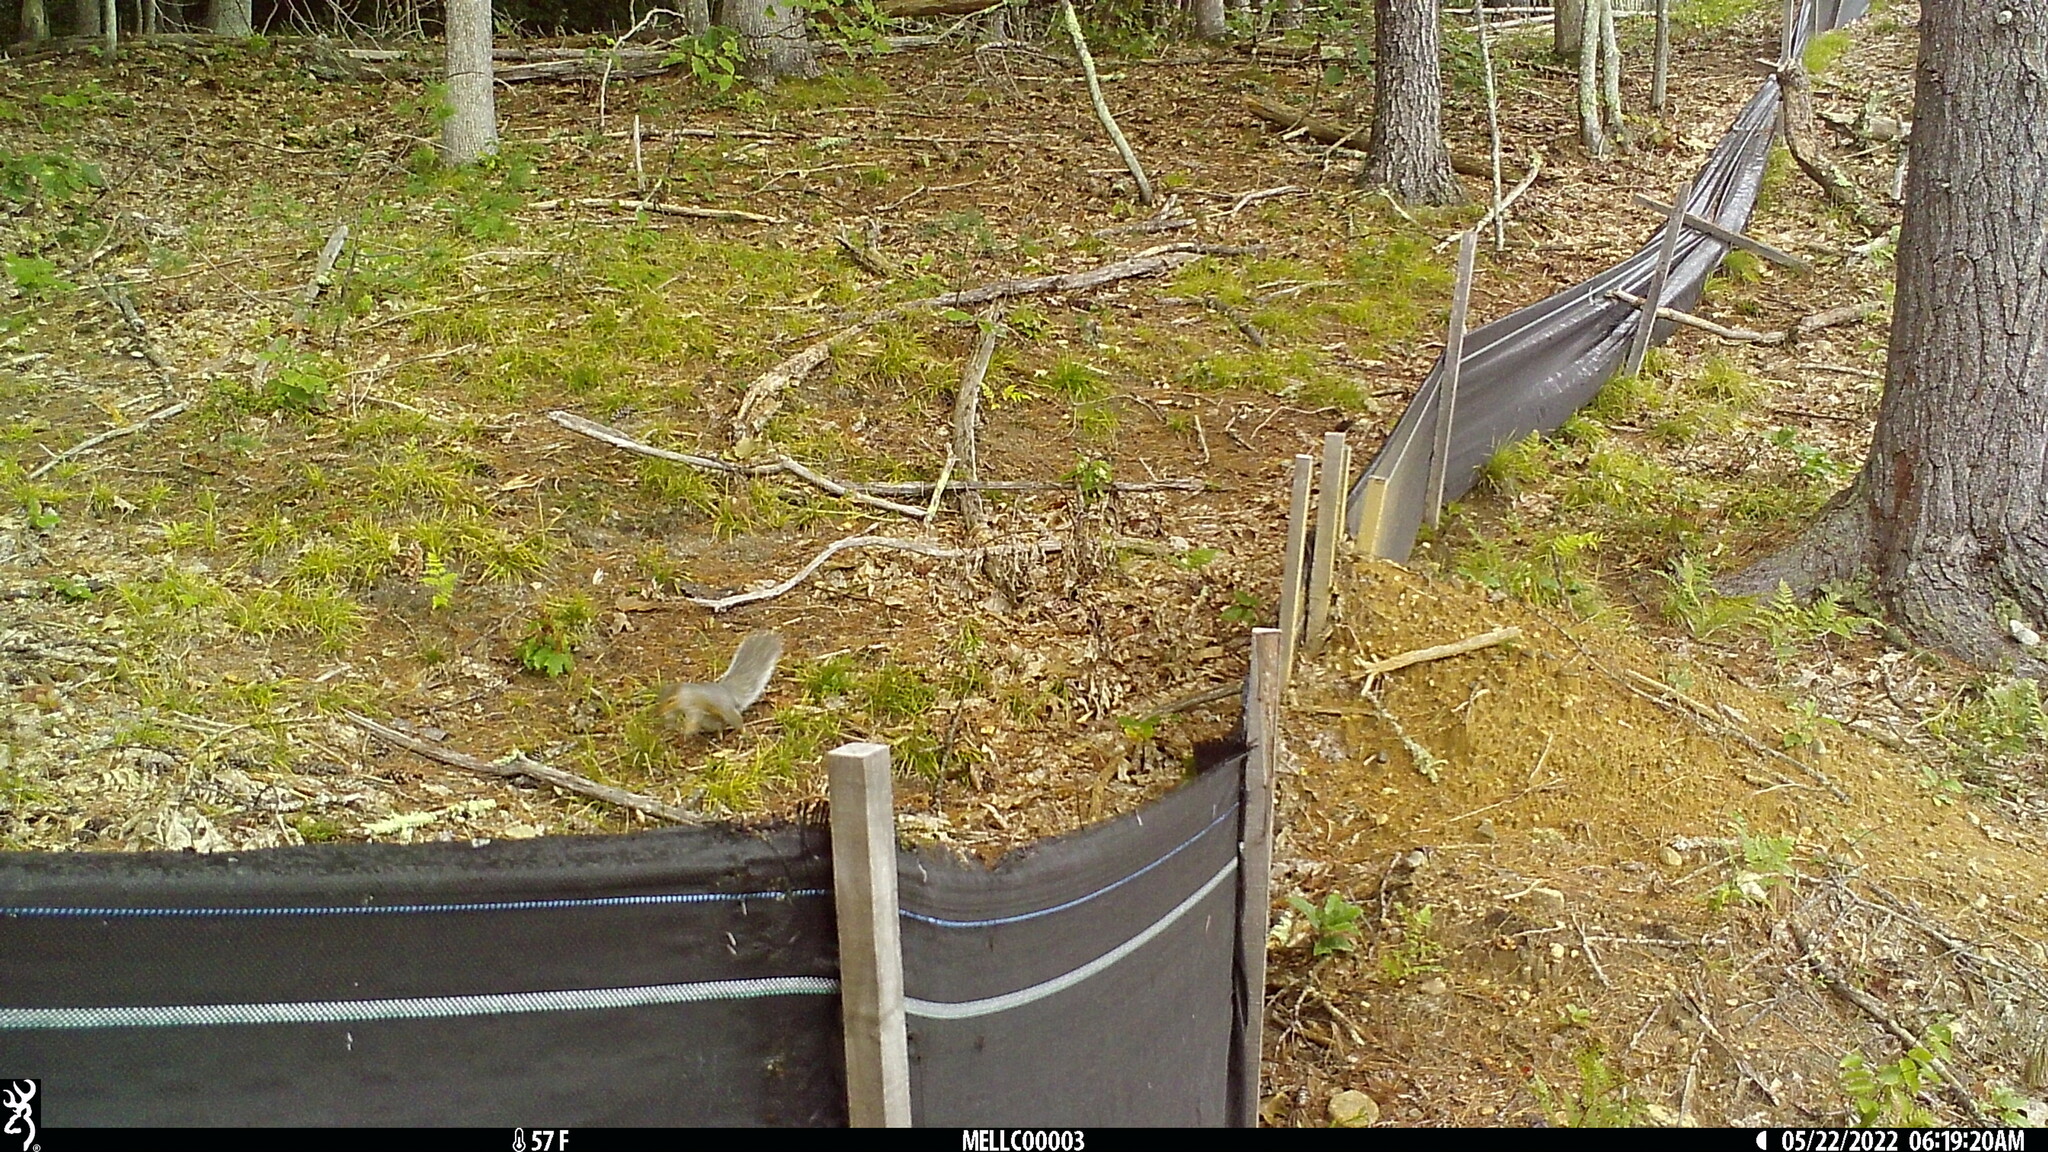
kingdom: Animalia
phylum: Chordata
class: Mammalia
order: Rodentia
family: Sciuridae
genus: Sciurus
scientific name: Sciurus carolinensis
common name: Eastern gray squirrel
